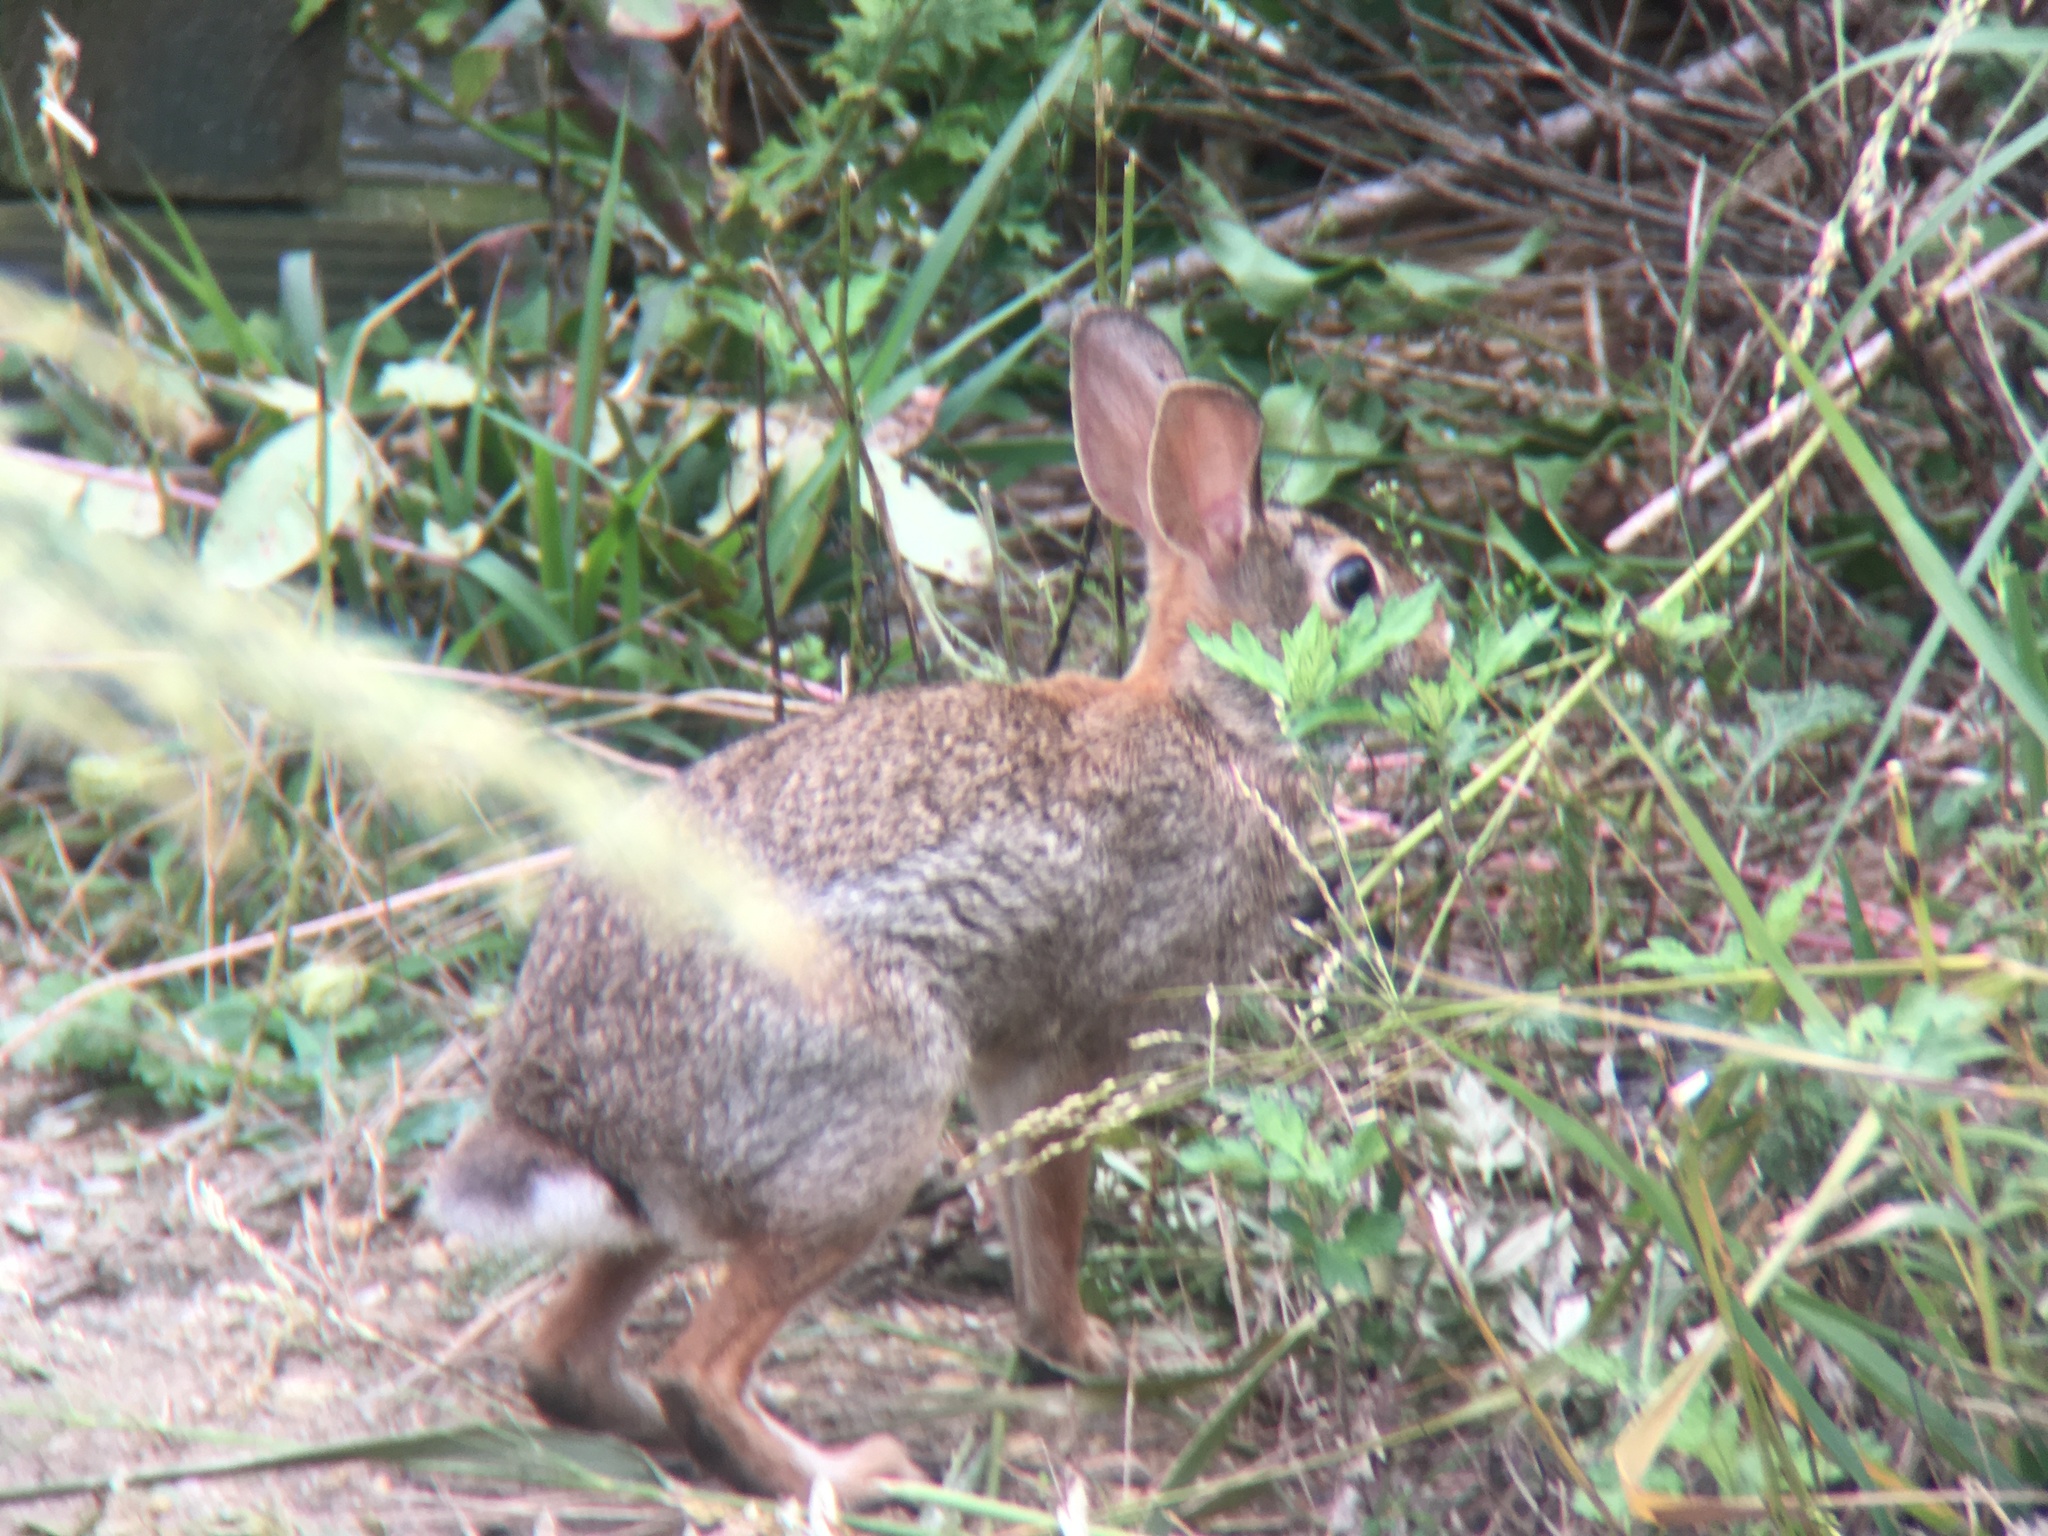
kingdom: Animalia
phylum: Chordata
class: Mammalia
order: Lagomorpha
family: Leporidae
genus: Sylvilagus
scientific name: Sylvilagus floridanus
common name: Eastern cottontail
